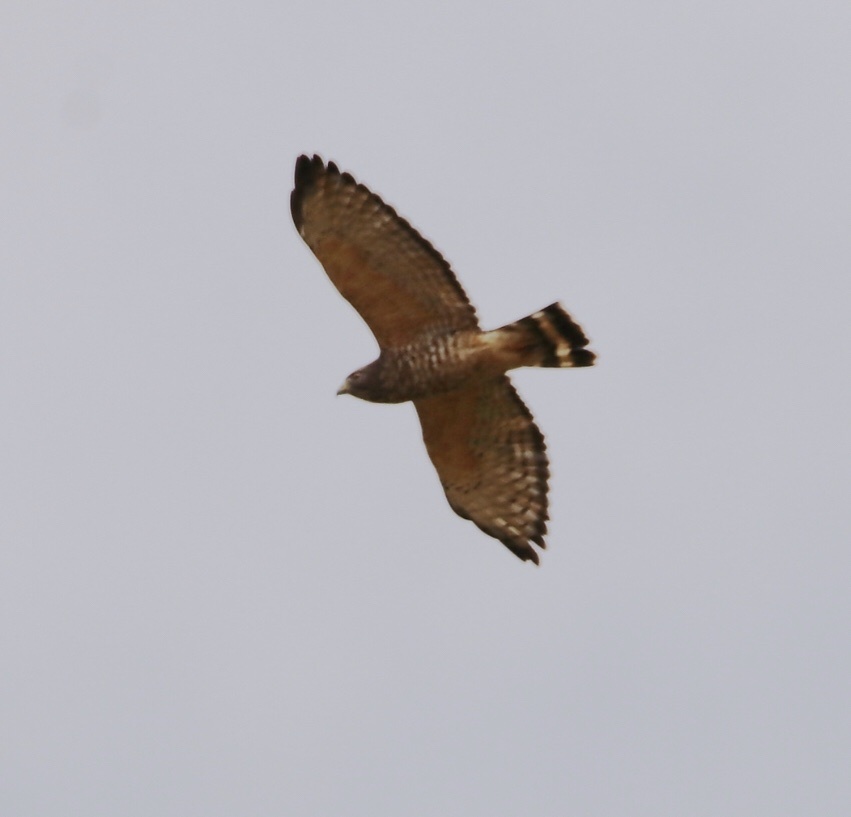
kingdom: Animalia
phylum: Chordata
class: Aves
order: Accipitriformes
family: Accipitridae
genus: Buteo
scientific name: Buteo platypterus
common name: Broad-winged hawk
